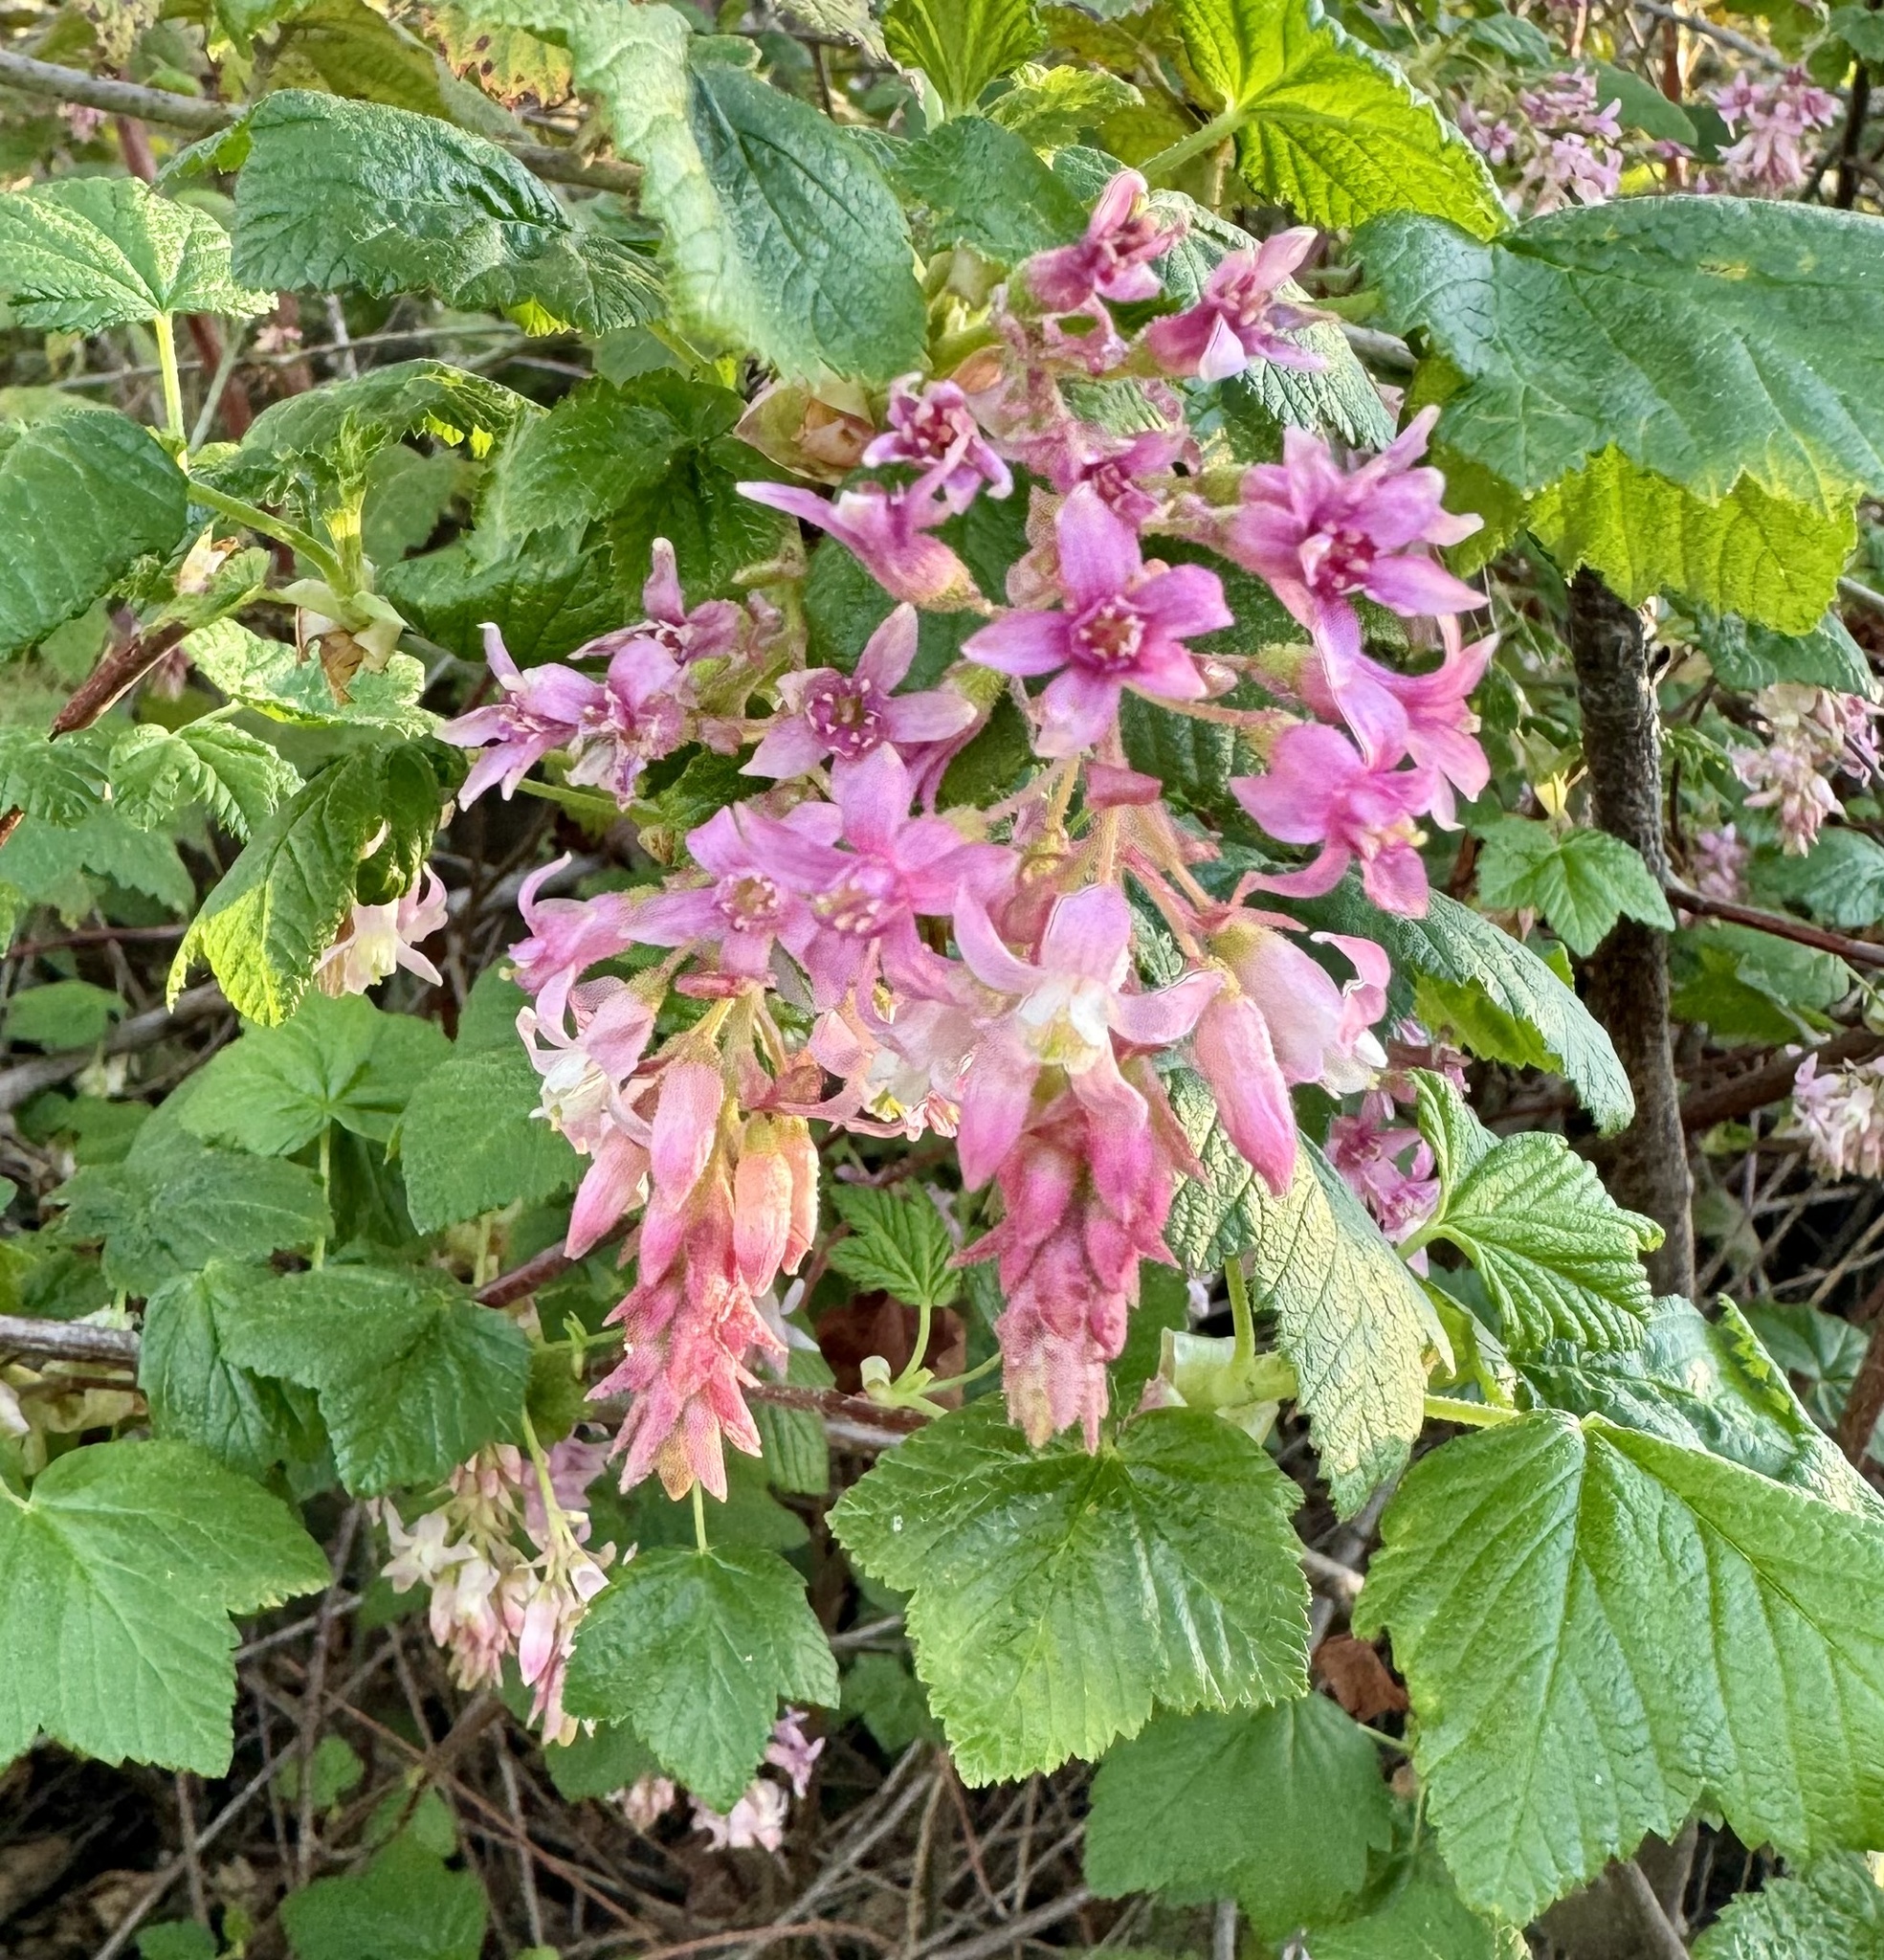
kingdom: Plantae
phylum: Tracheophyta
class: Magnoliopsida
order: Saxifragales
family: Grossulariaceae
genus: Ribes
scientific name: Ribes sanguineum
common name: Flowering currant
